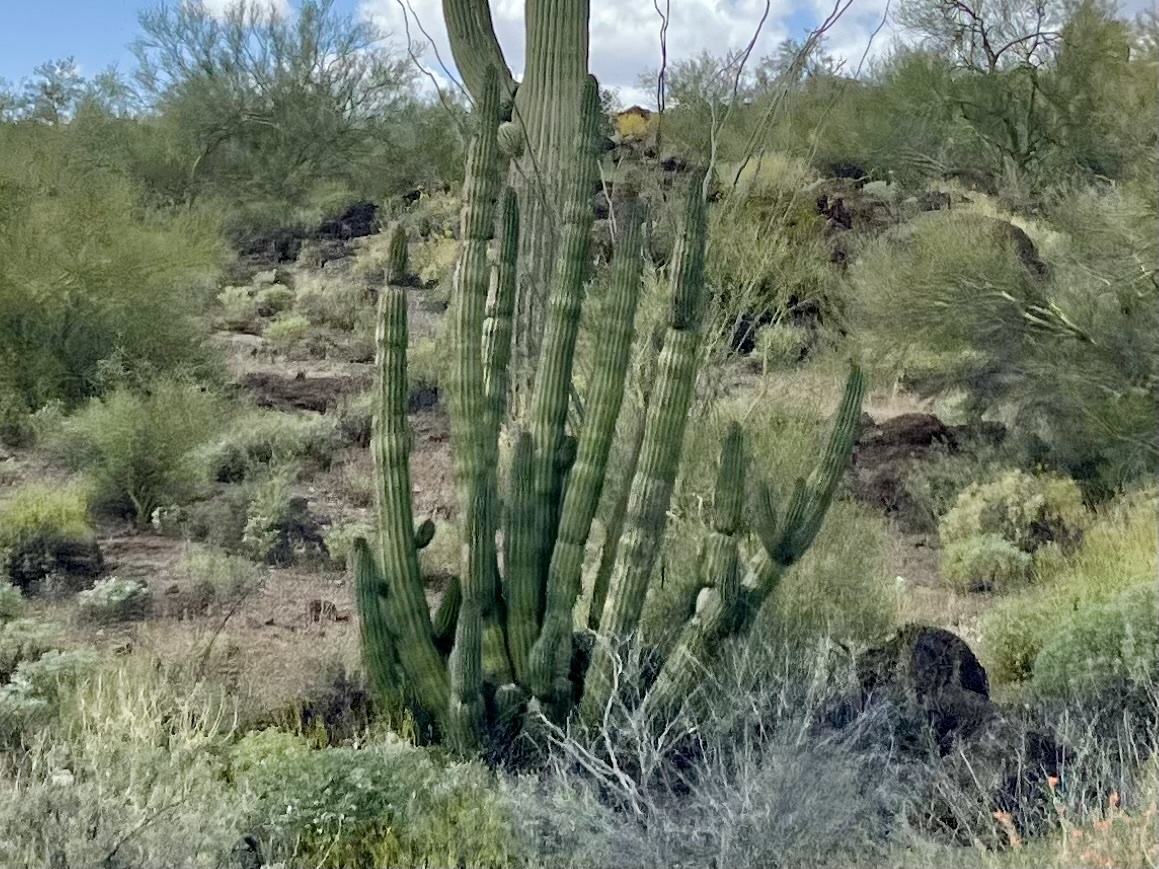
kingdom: Plantae
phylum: Tracheophyta
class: Magnoliopsida
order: Caryophyllales
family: Cactaceae
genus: Stenocereus
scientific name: Stenocereus thurberi
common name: Organ pipe cactus
